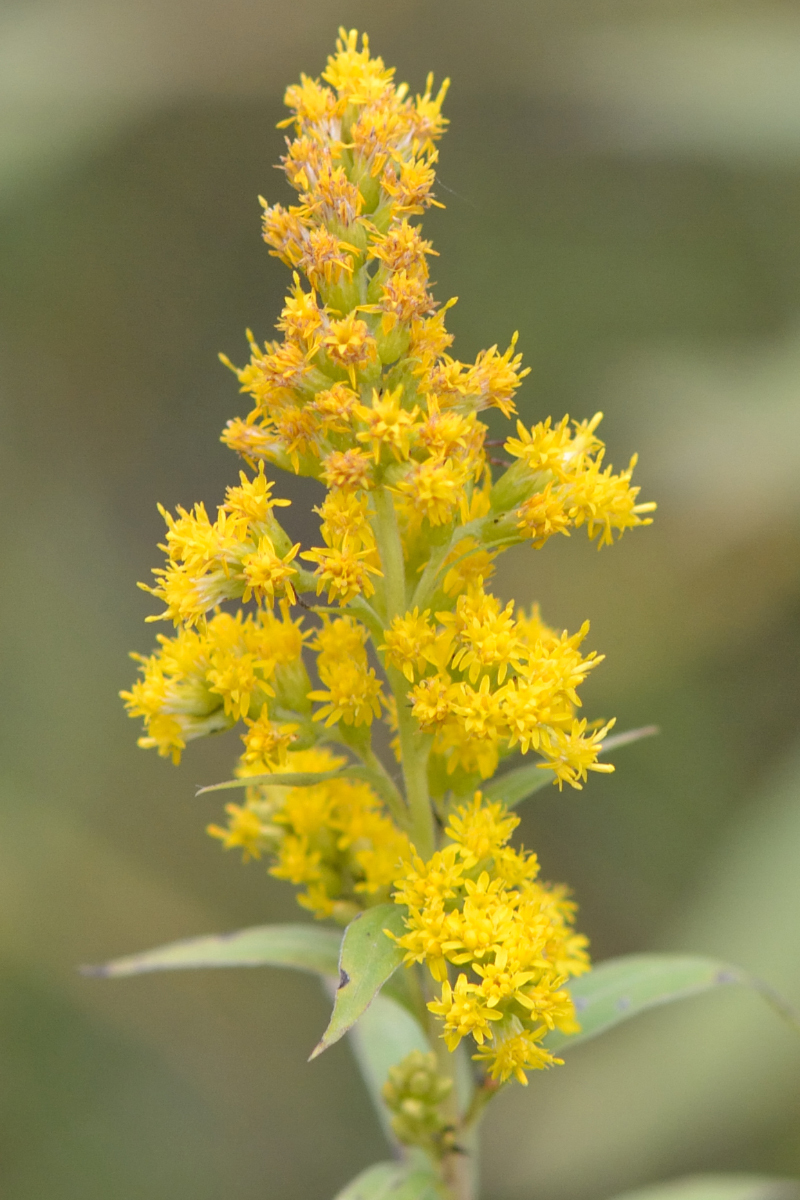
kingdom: Plantae
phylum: Tracheophyta
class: Magnoliopsida
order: Asterales
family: Asteraceae
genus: Solidago
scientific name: Solidago gigantea
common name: Giant goldenrod
